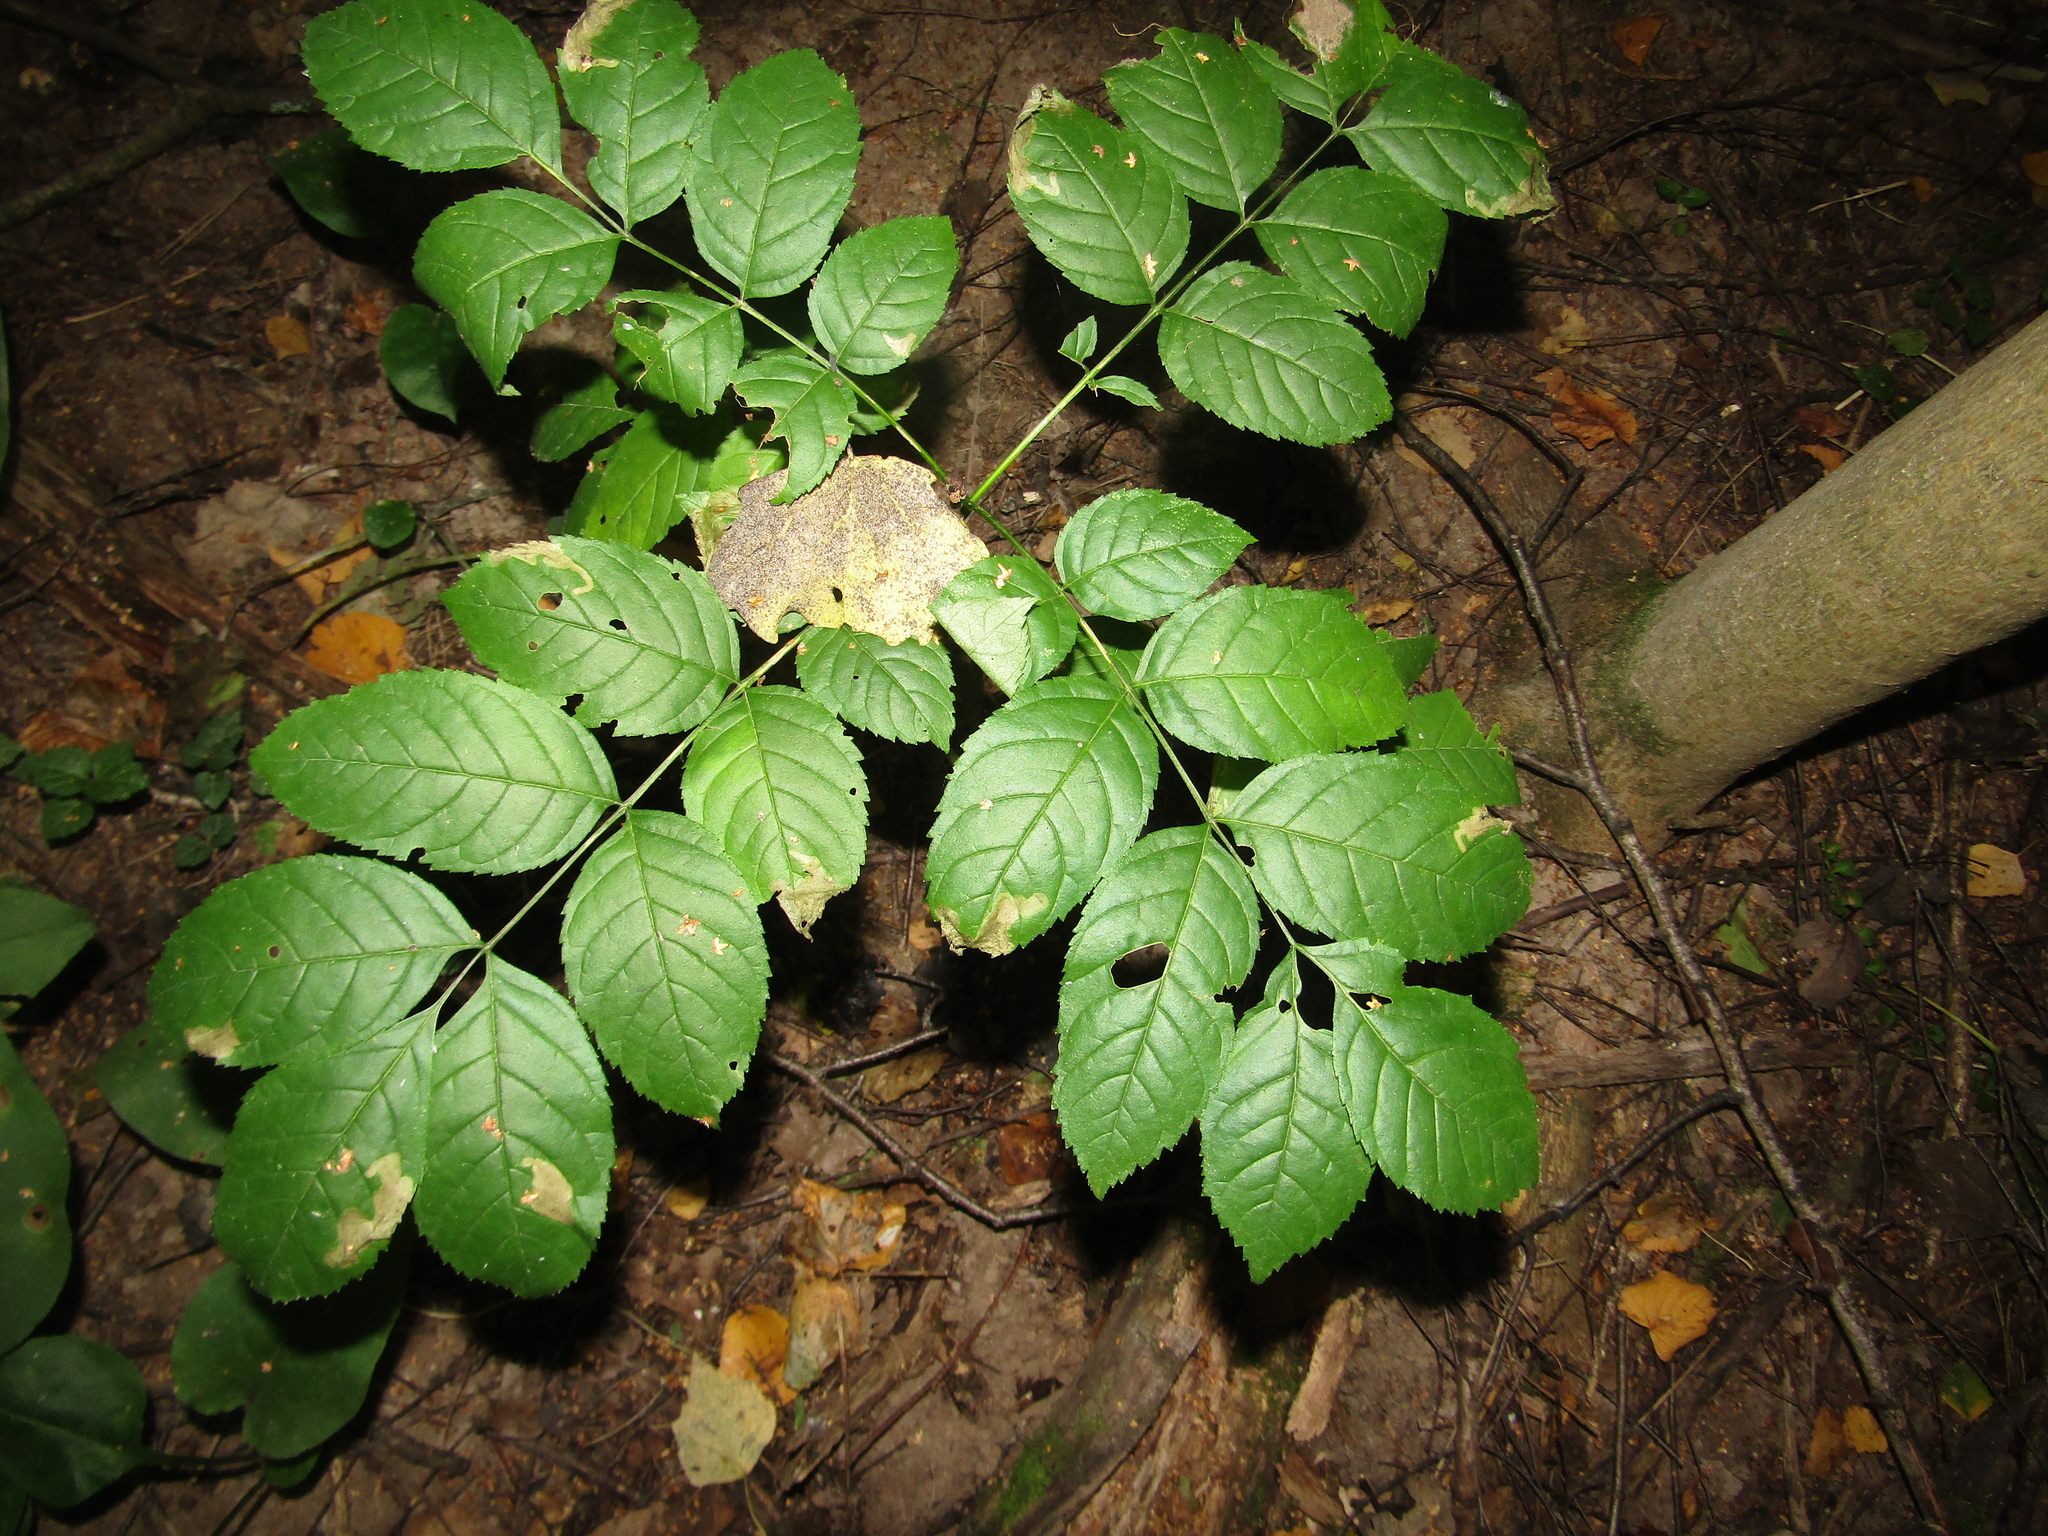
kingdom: Plantae
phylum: Tracheophyta
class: Magnoliopsida
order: Lamiales
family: Oleaceae
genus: Fraxinus
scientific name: Fraxinus excelsior
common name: European ash
